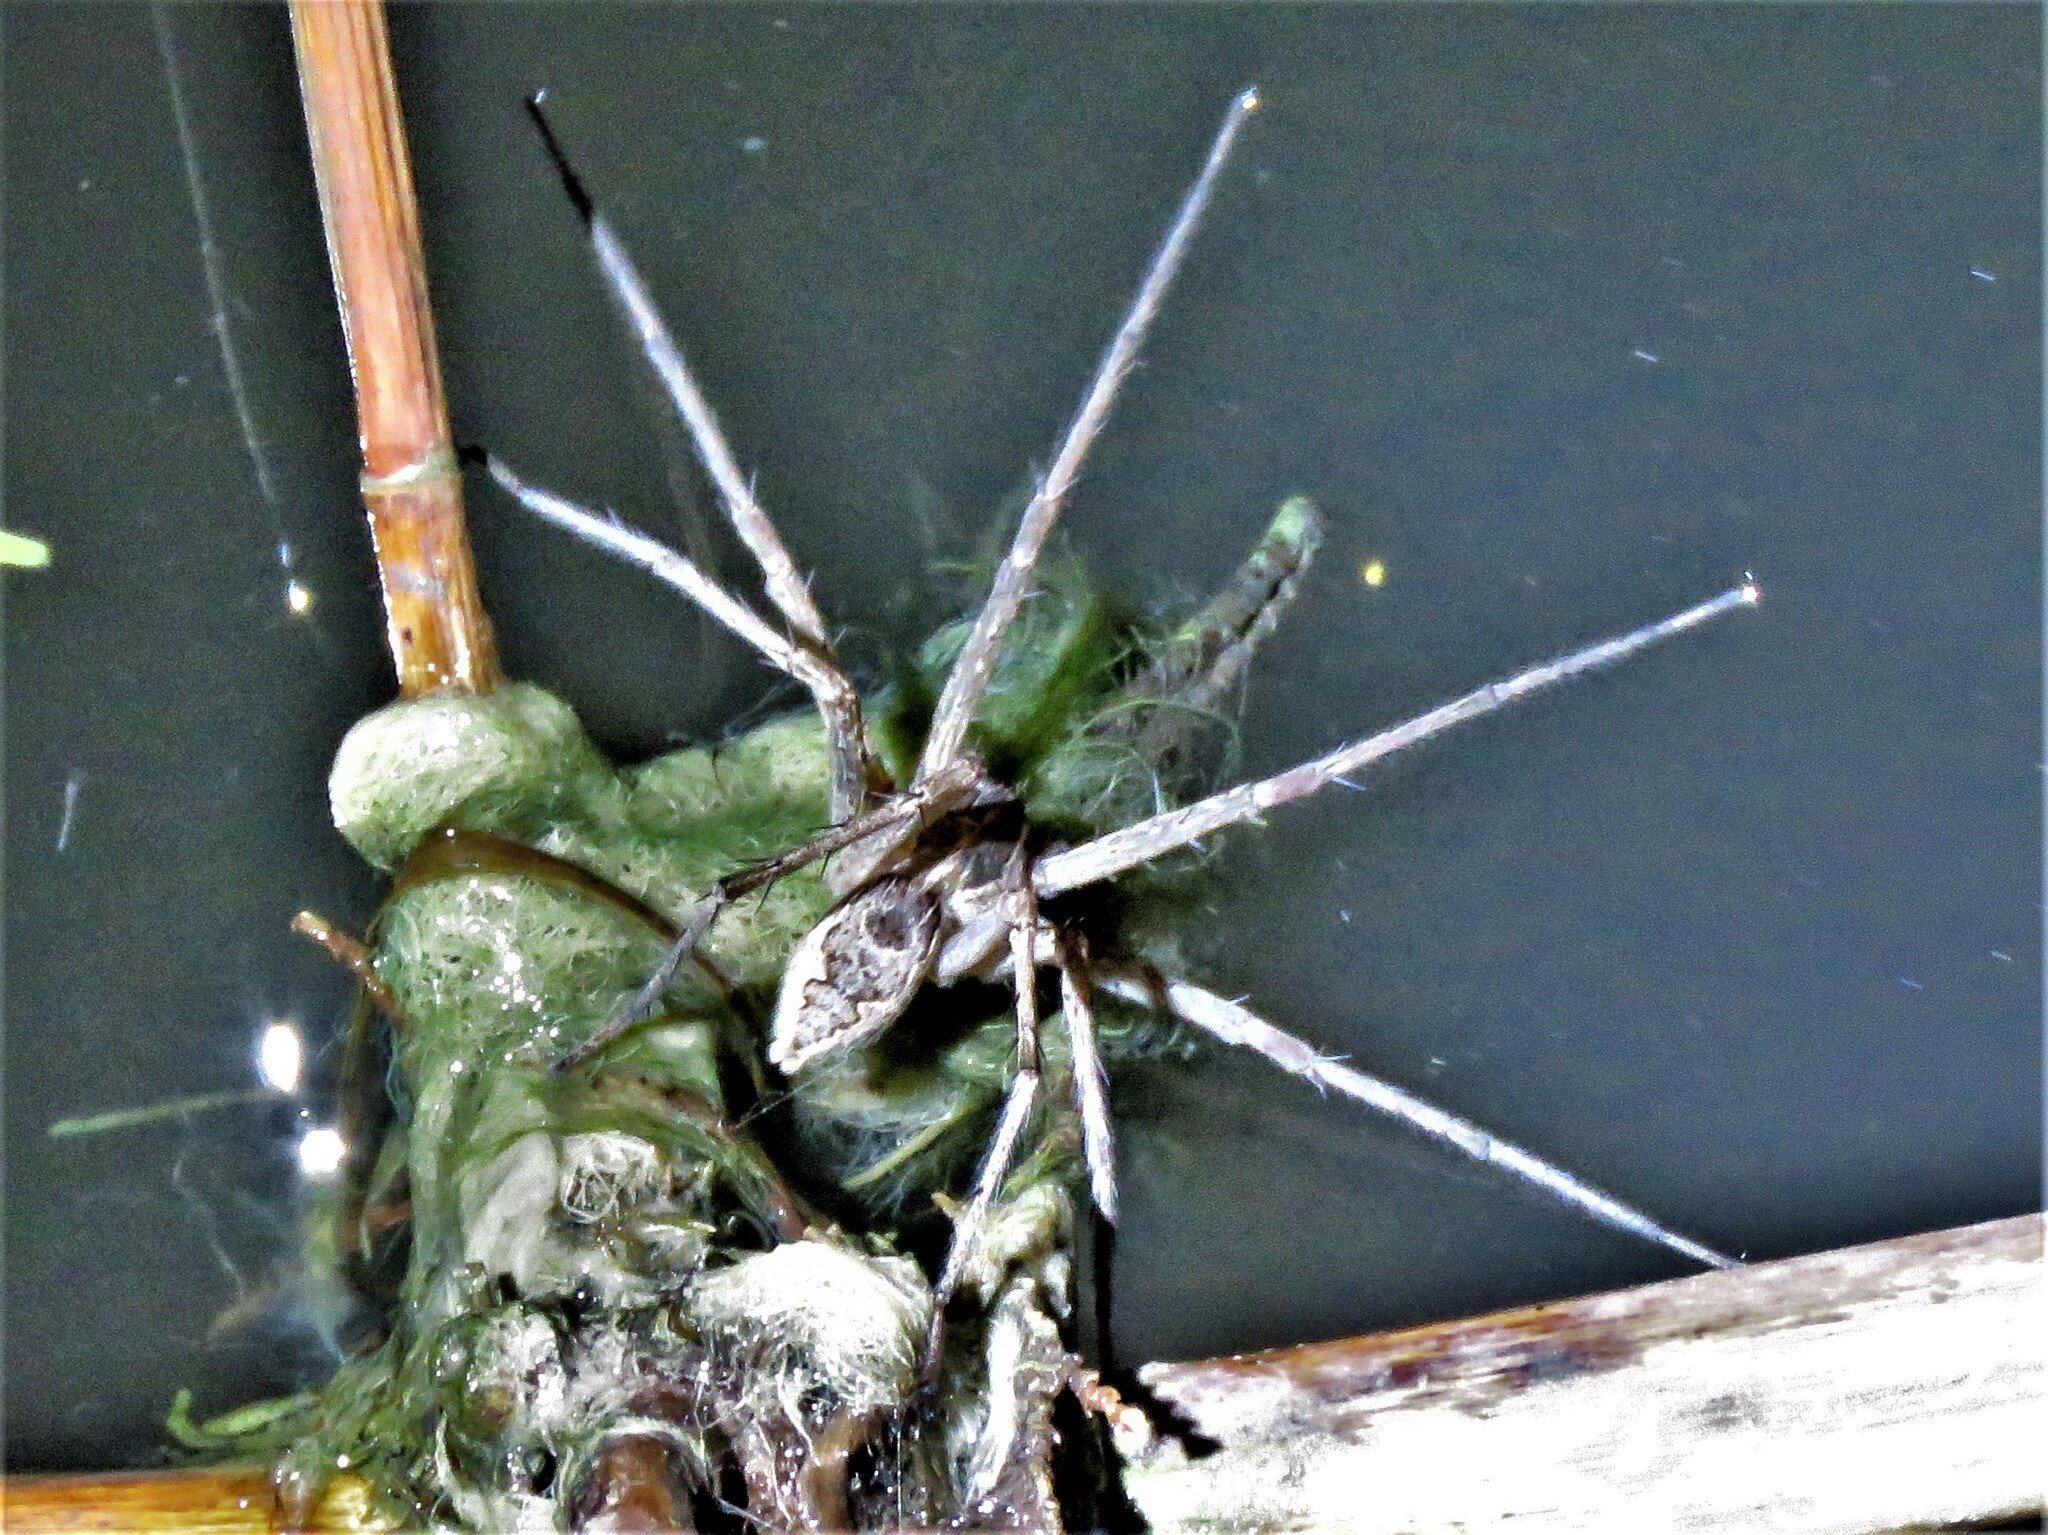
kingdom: Animalia
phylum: Arthropoda
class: Arachnida
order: Araneae
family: Pisauridae
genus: Tinus
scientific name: Tinus peregrinus
